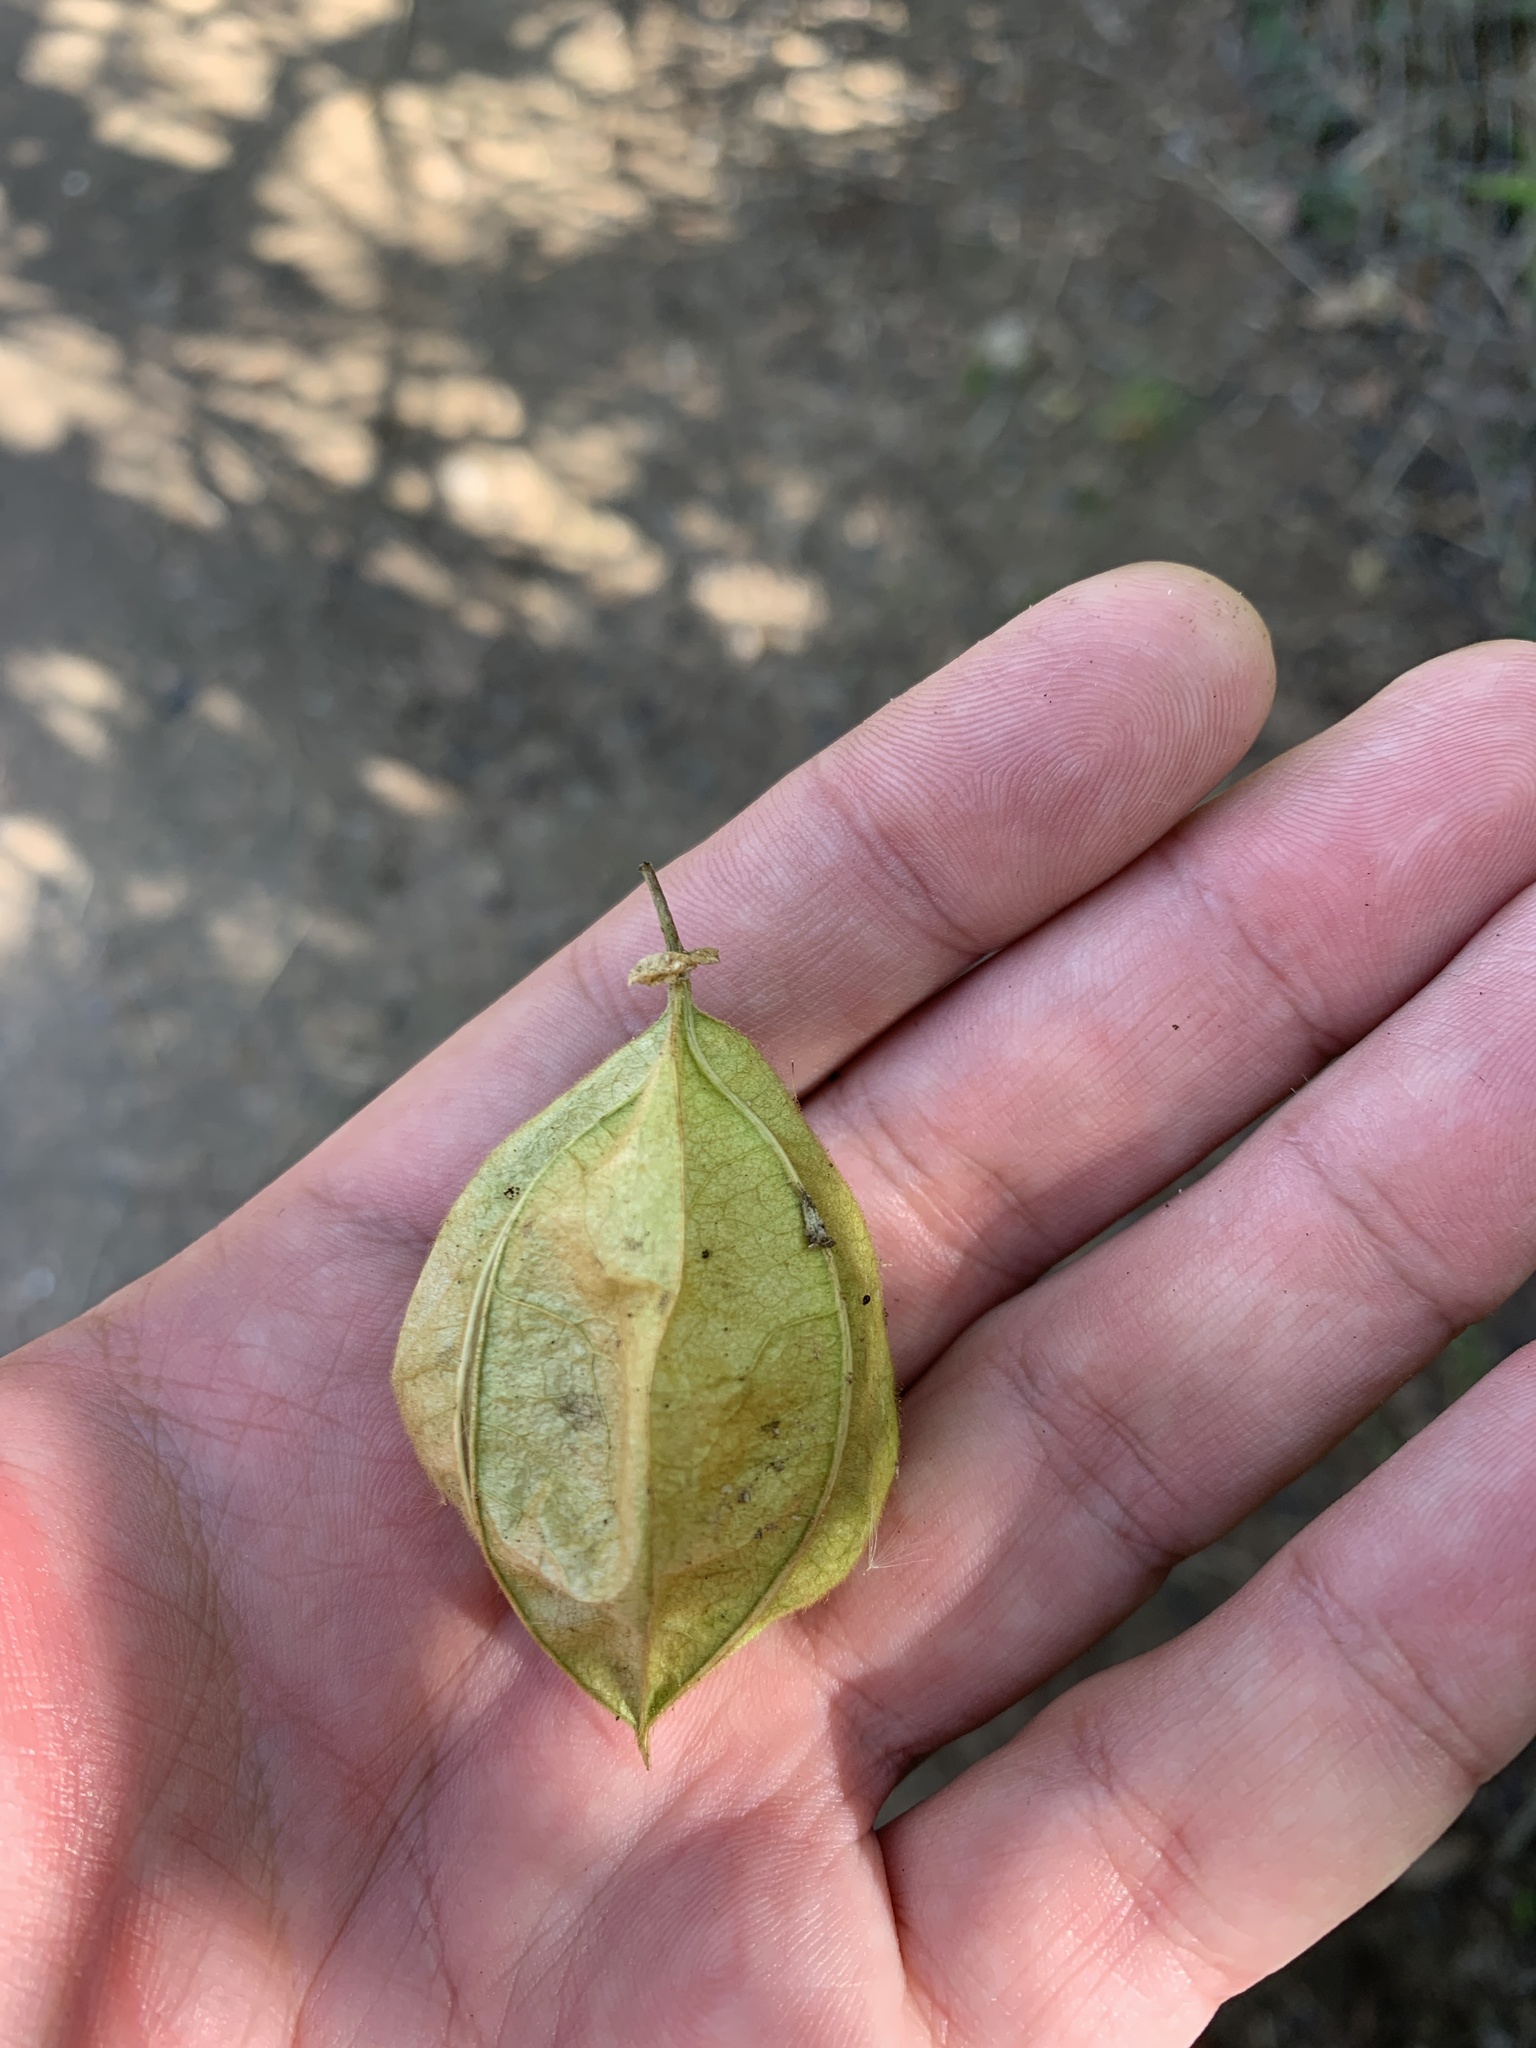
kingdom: Plantae
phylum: Tracheophyta
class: Magnoliopsida
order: Sapindales
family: Sapindaceae
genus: Cardiospermum
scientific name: Cardiospermum grandiflorum
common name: Balloon vine
